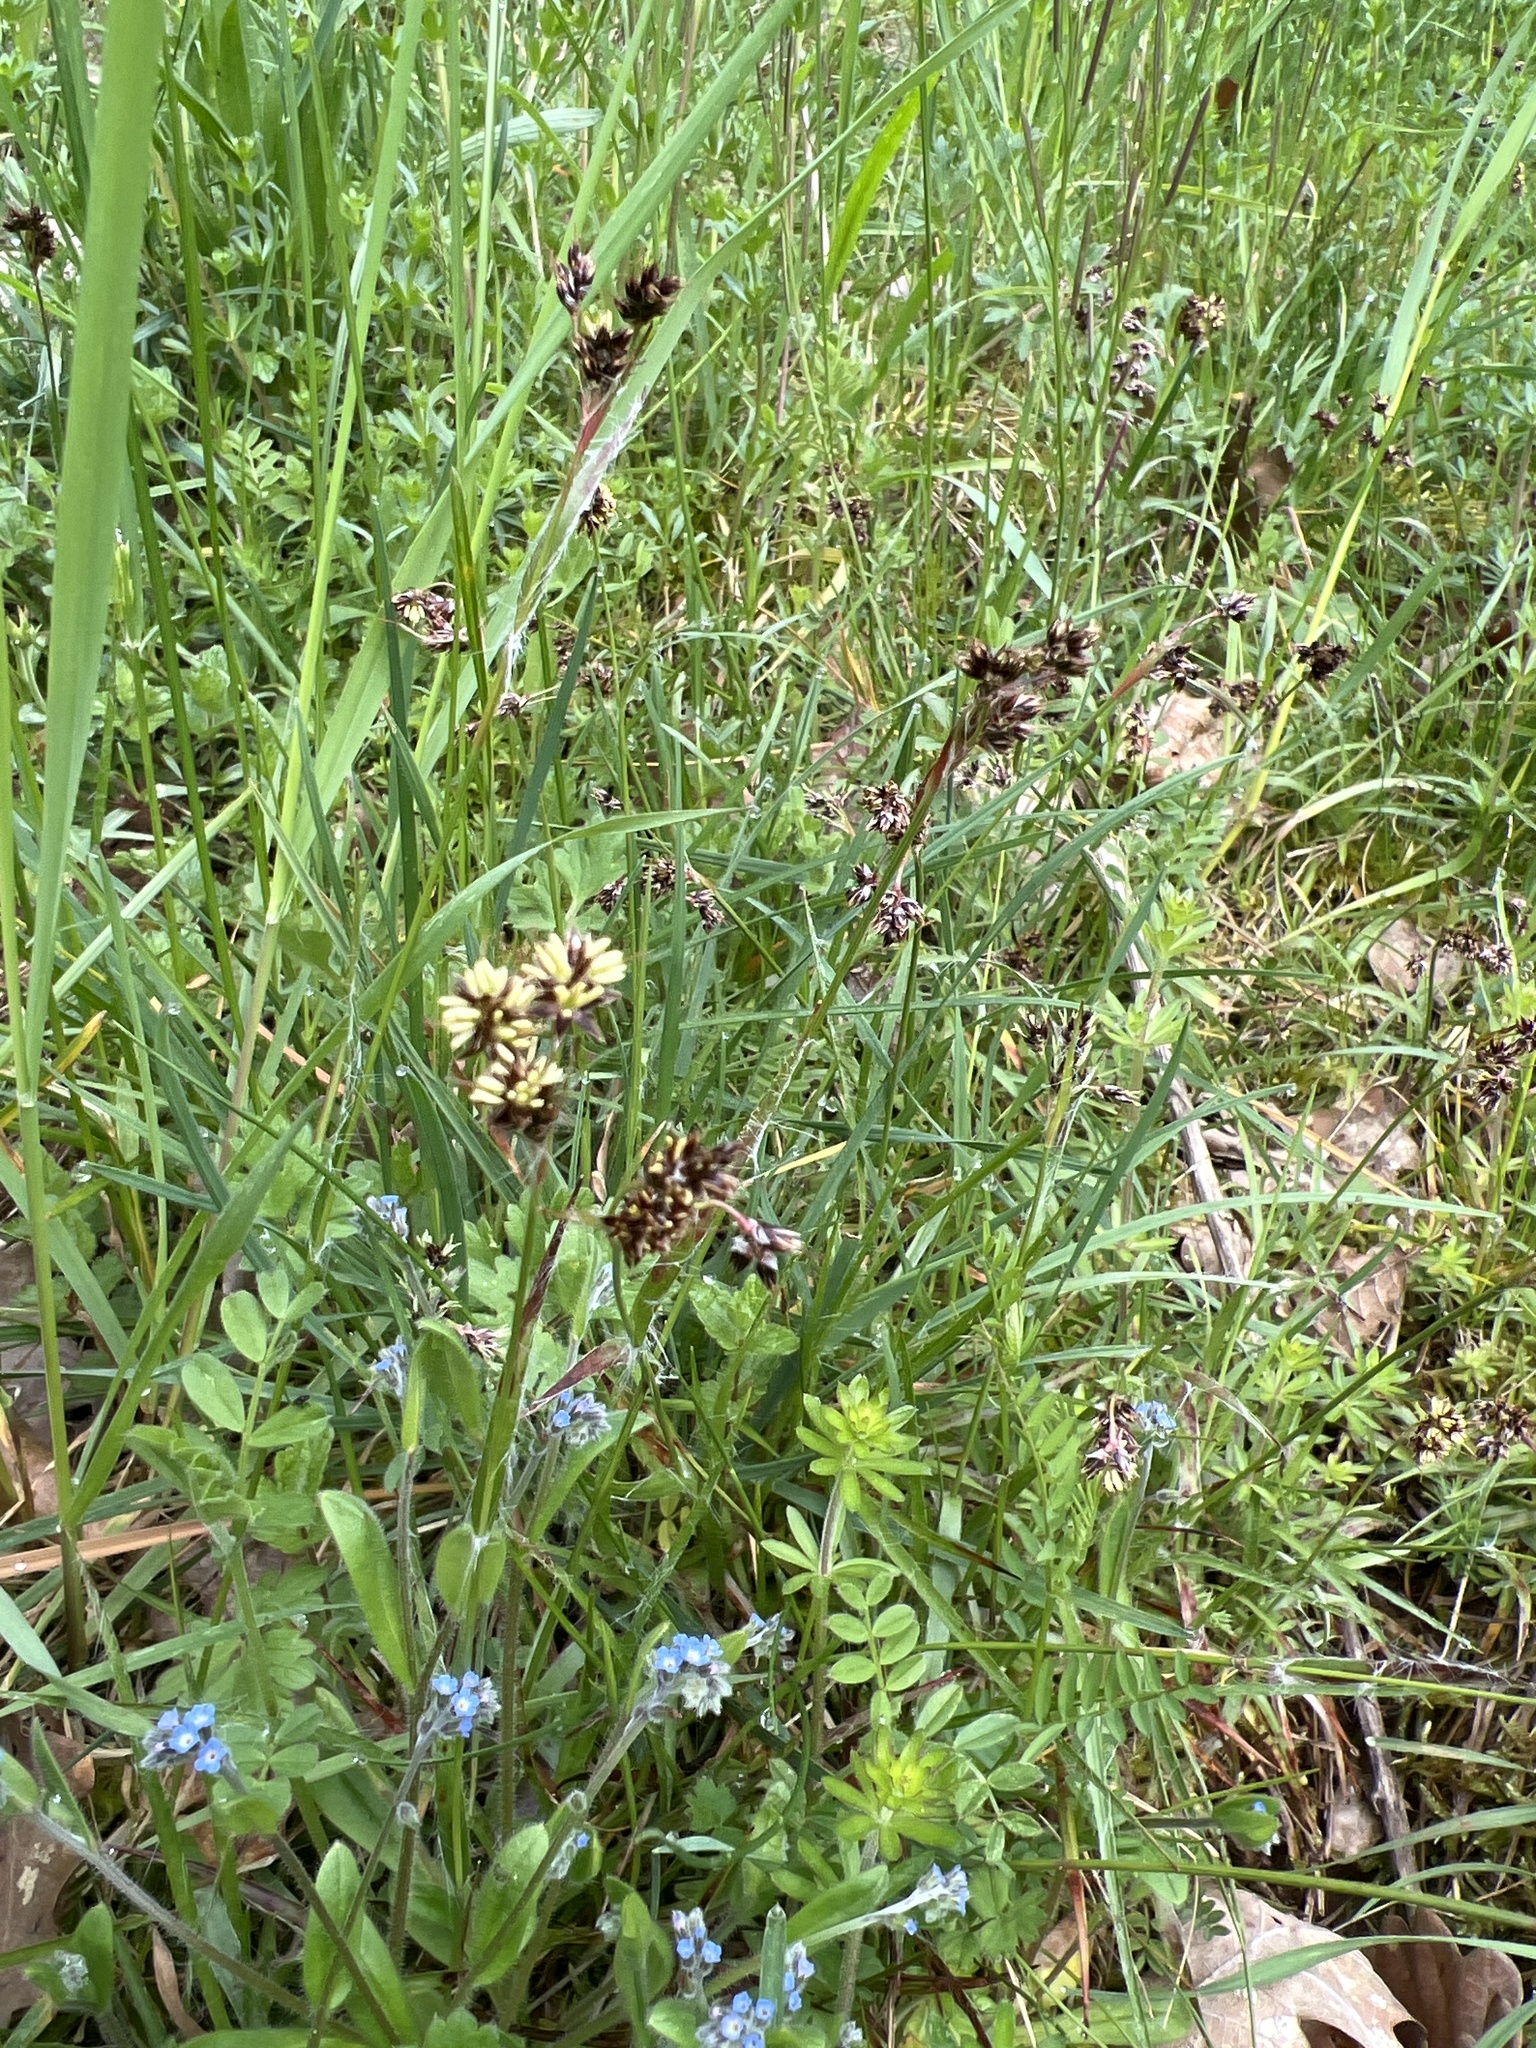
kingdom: Plantae
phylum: Tracheophyta
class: Liliopsida
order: Poales
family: Juncaceae
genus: Luzula
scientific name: Luzula campestris
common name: Field wood-rush
